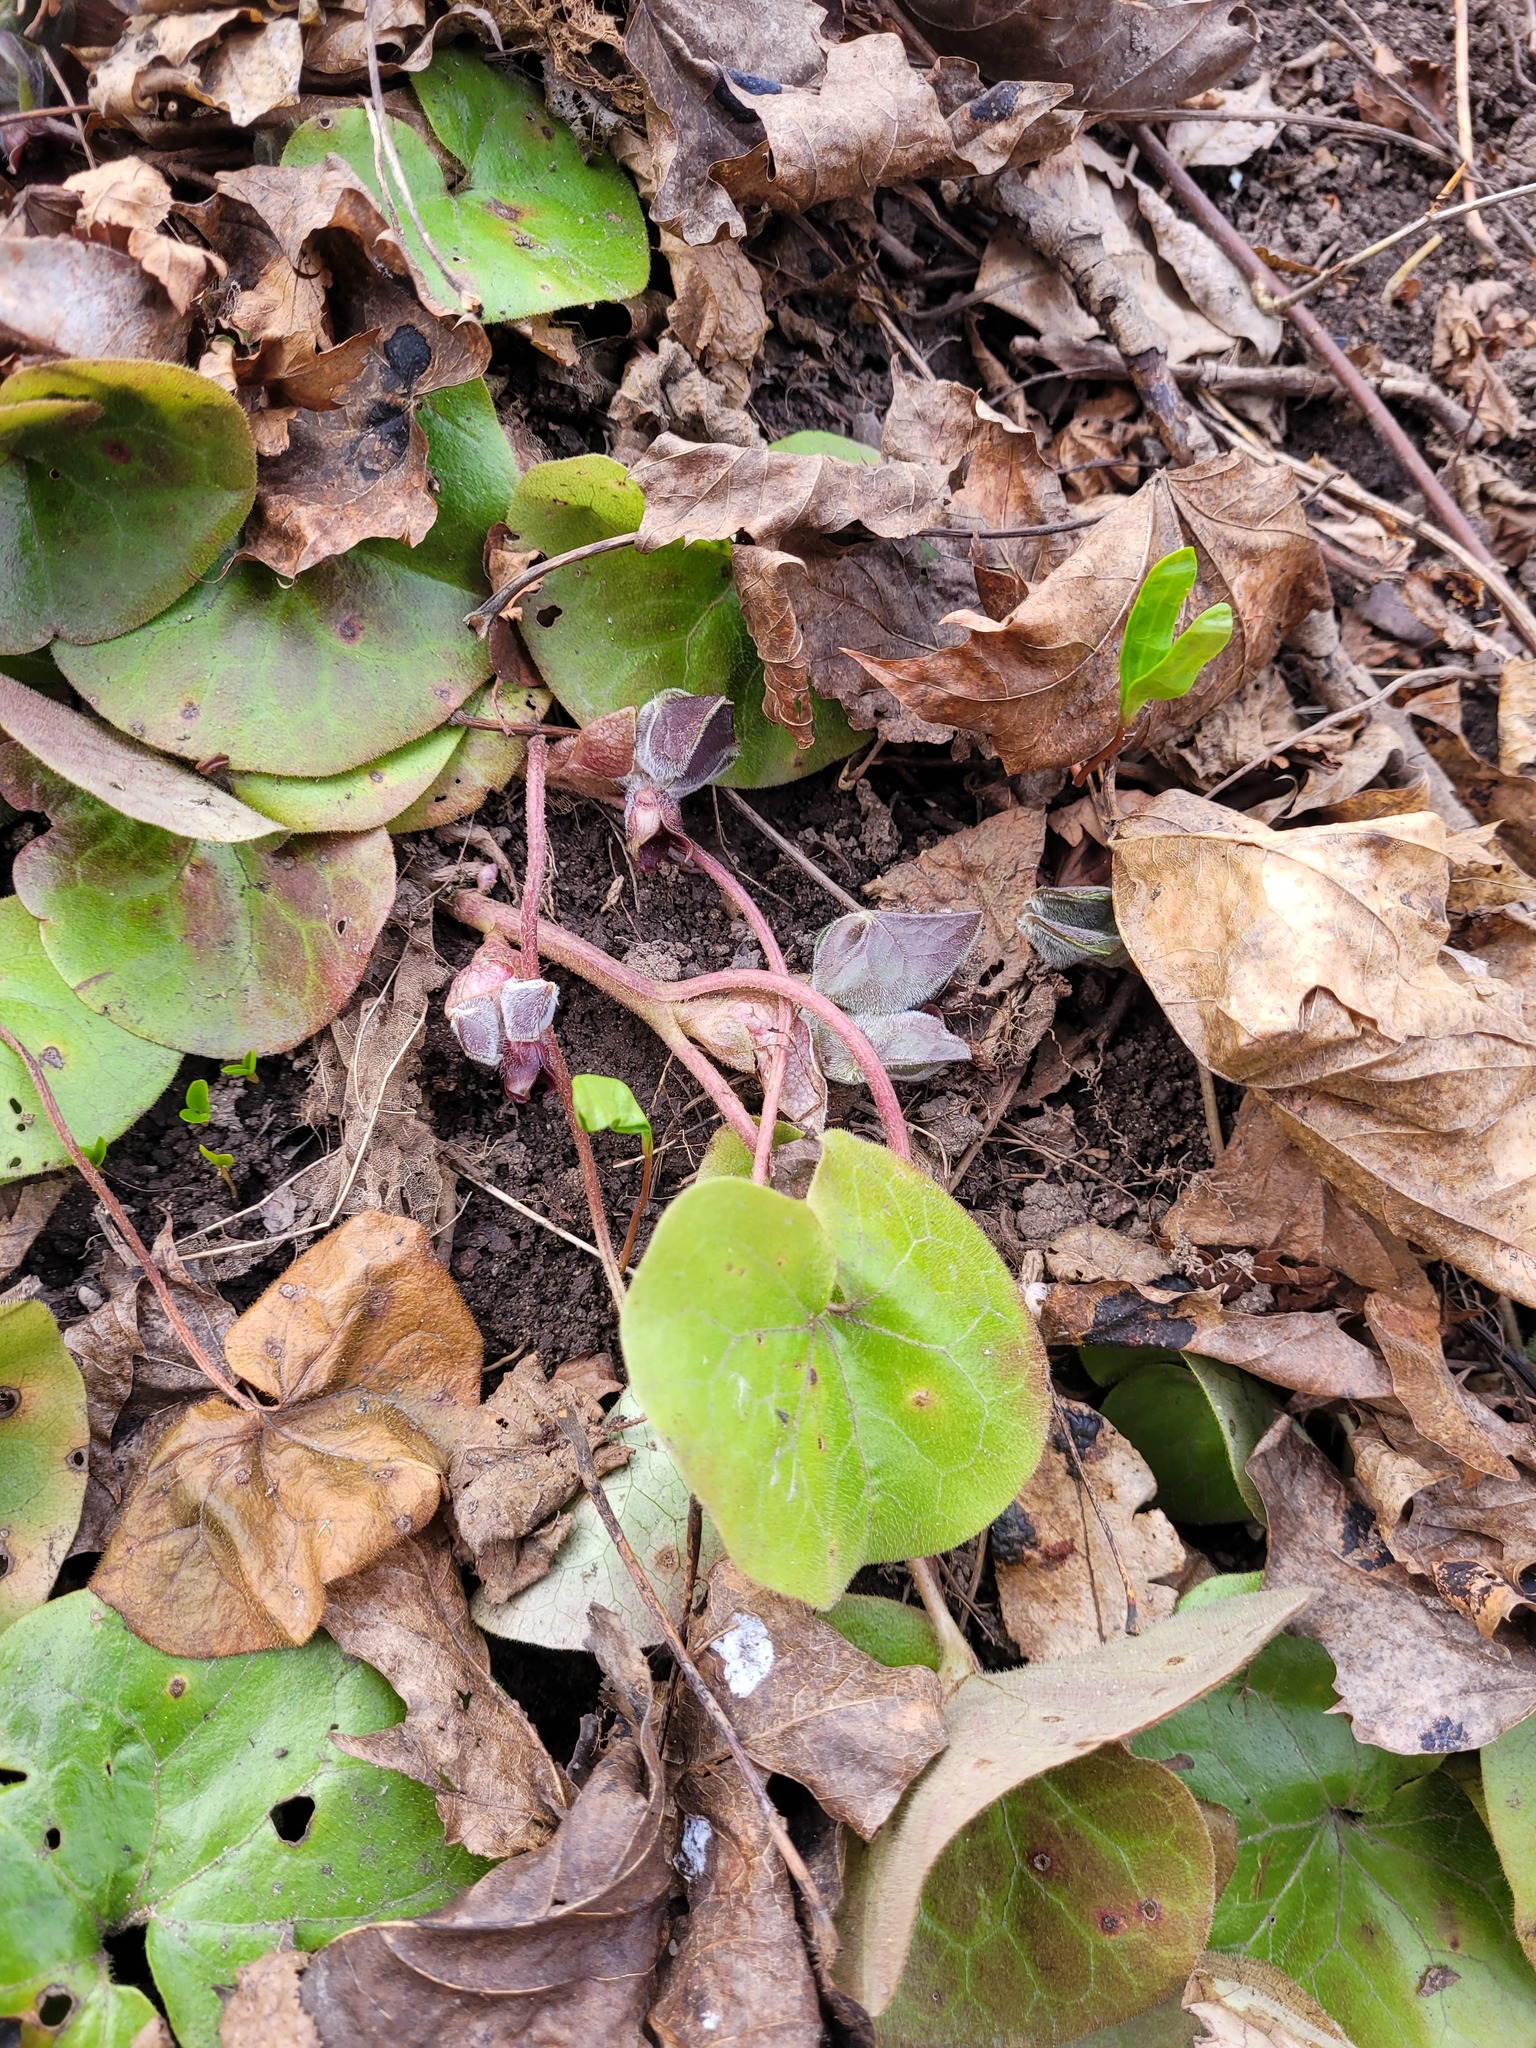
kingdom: Plantae
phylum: Tracheophyta
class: Magnoliopsida
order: Piperales
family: Aristolochiaceae
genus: Asarum
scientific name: Asarum europaeum
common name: Asarabacca
